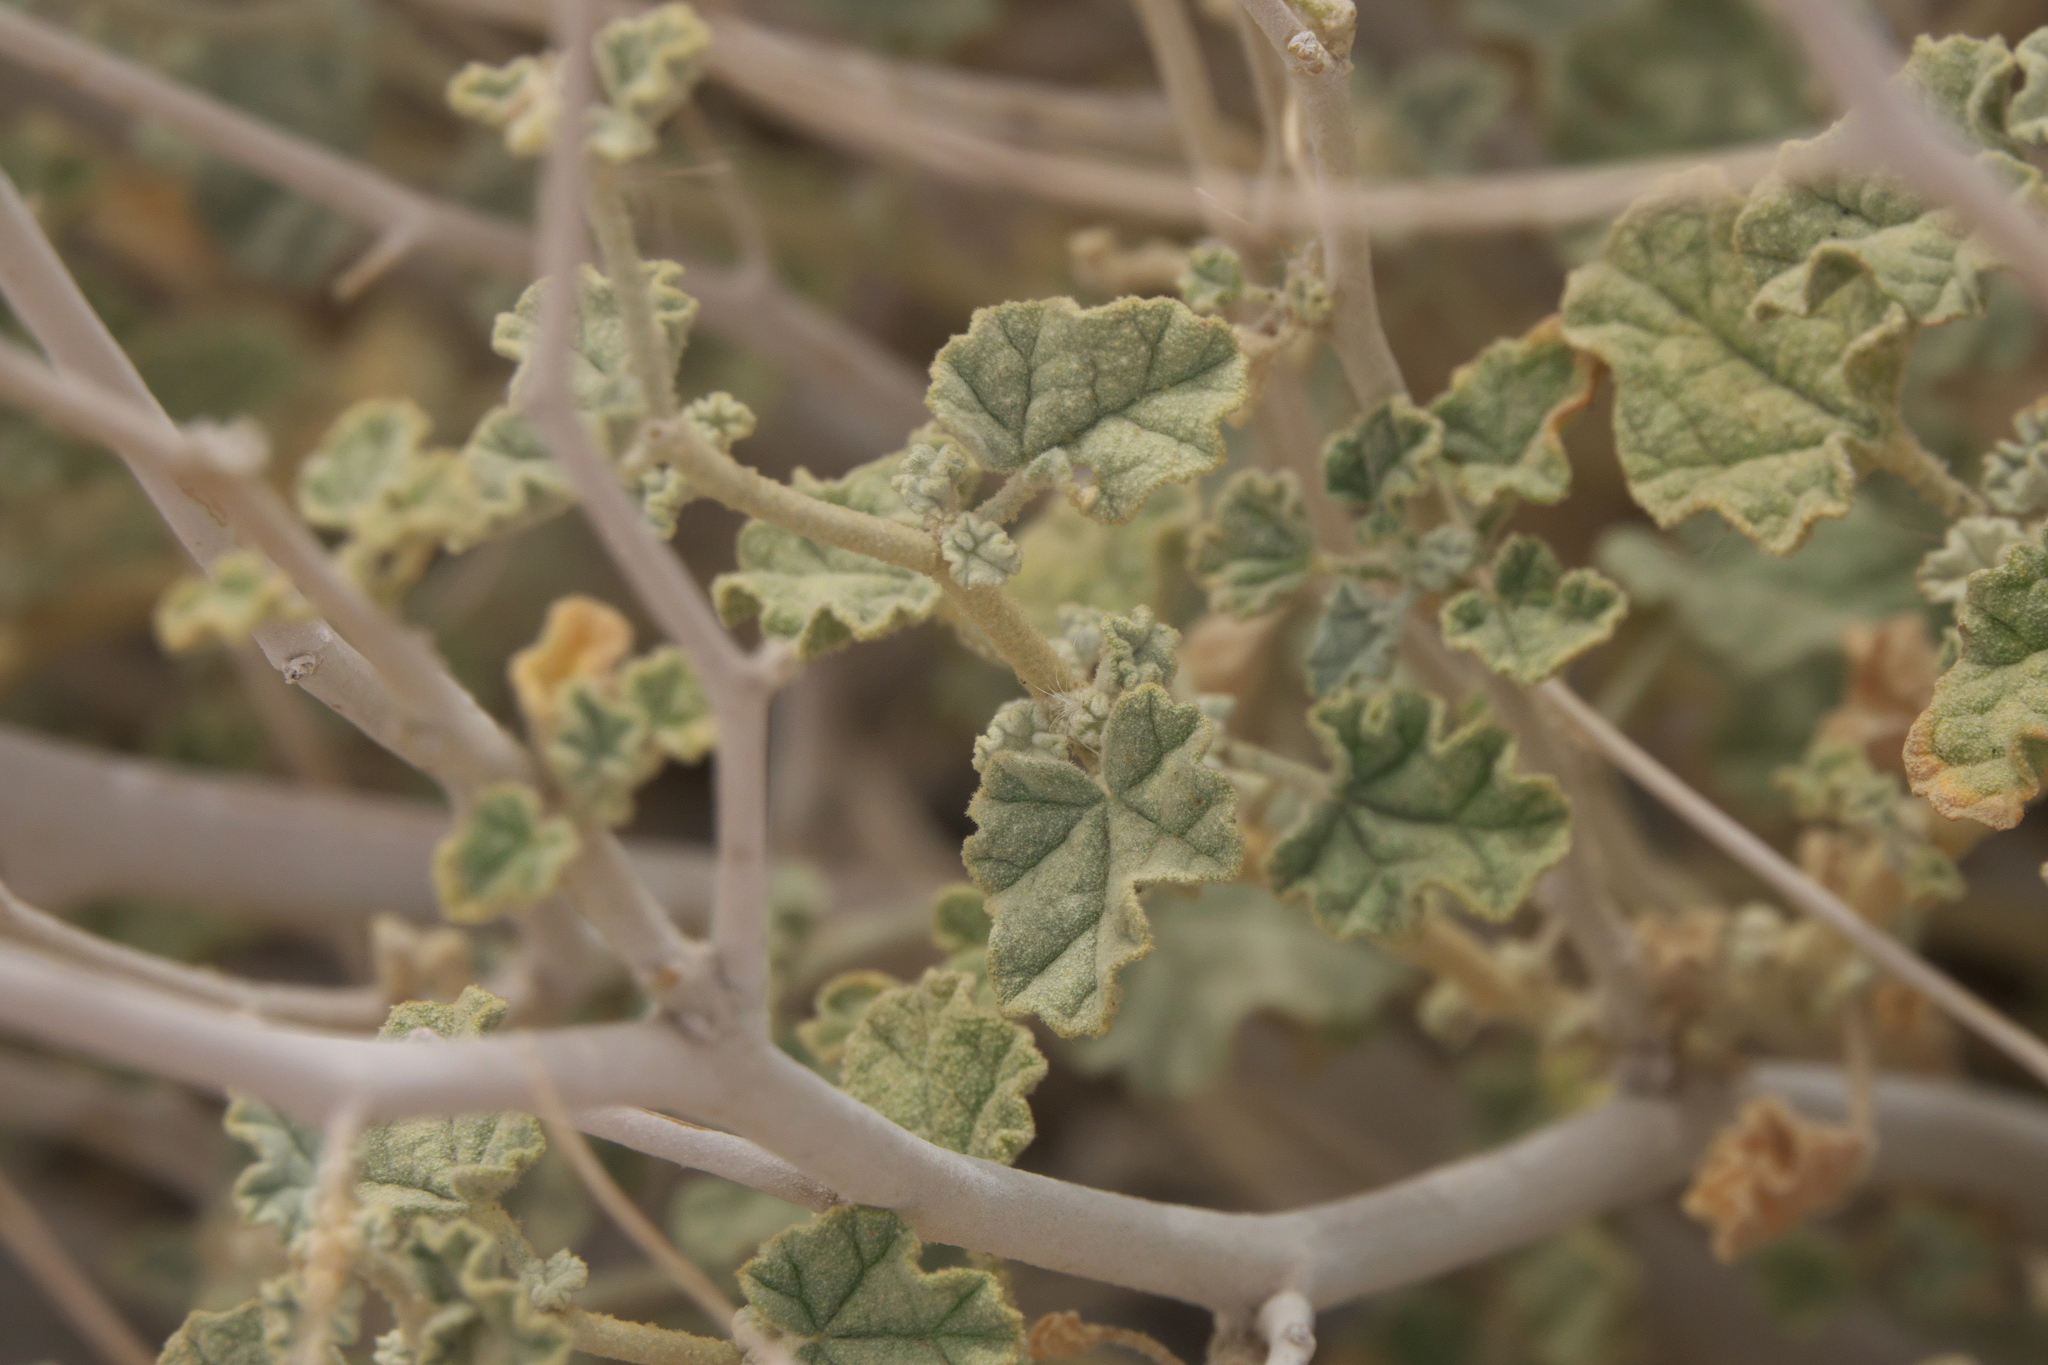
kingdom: Plantae
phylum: Tracheophyta
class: Magnoliopsida
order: Malvales
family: Malvaceae
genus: Sphaeralcea
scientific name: Sphaeralcea ambigua
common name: Apricot globe-mallow
